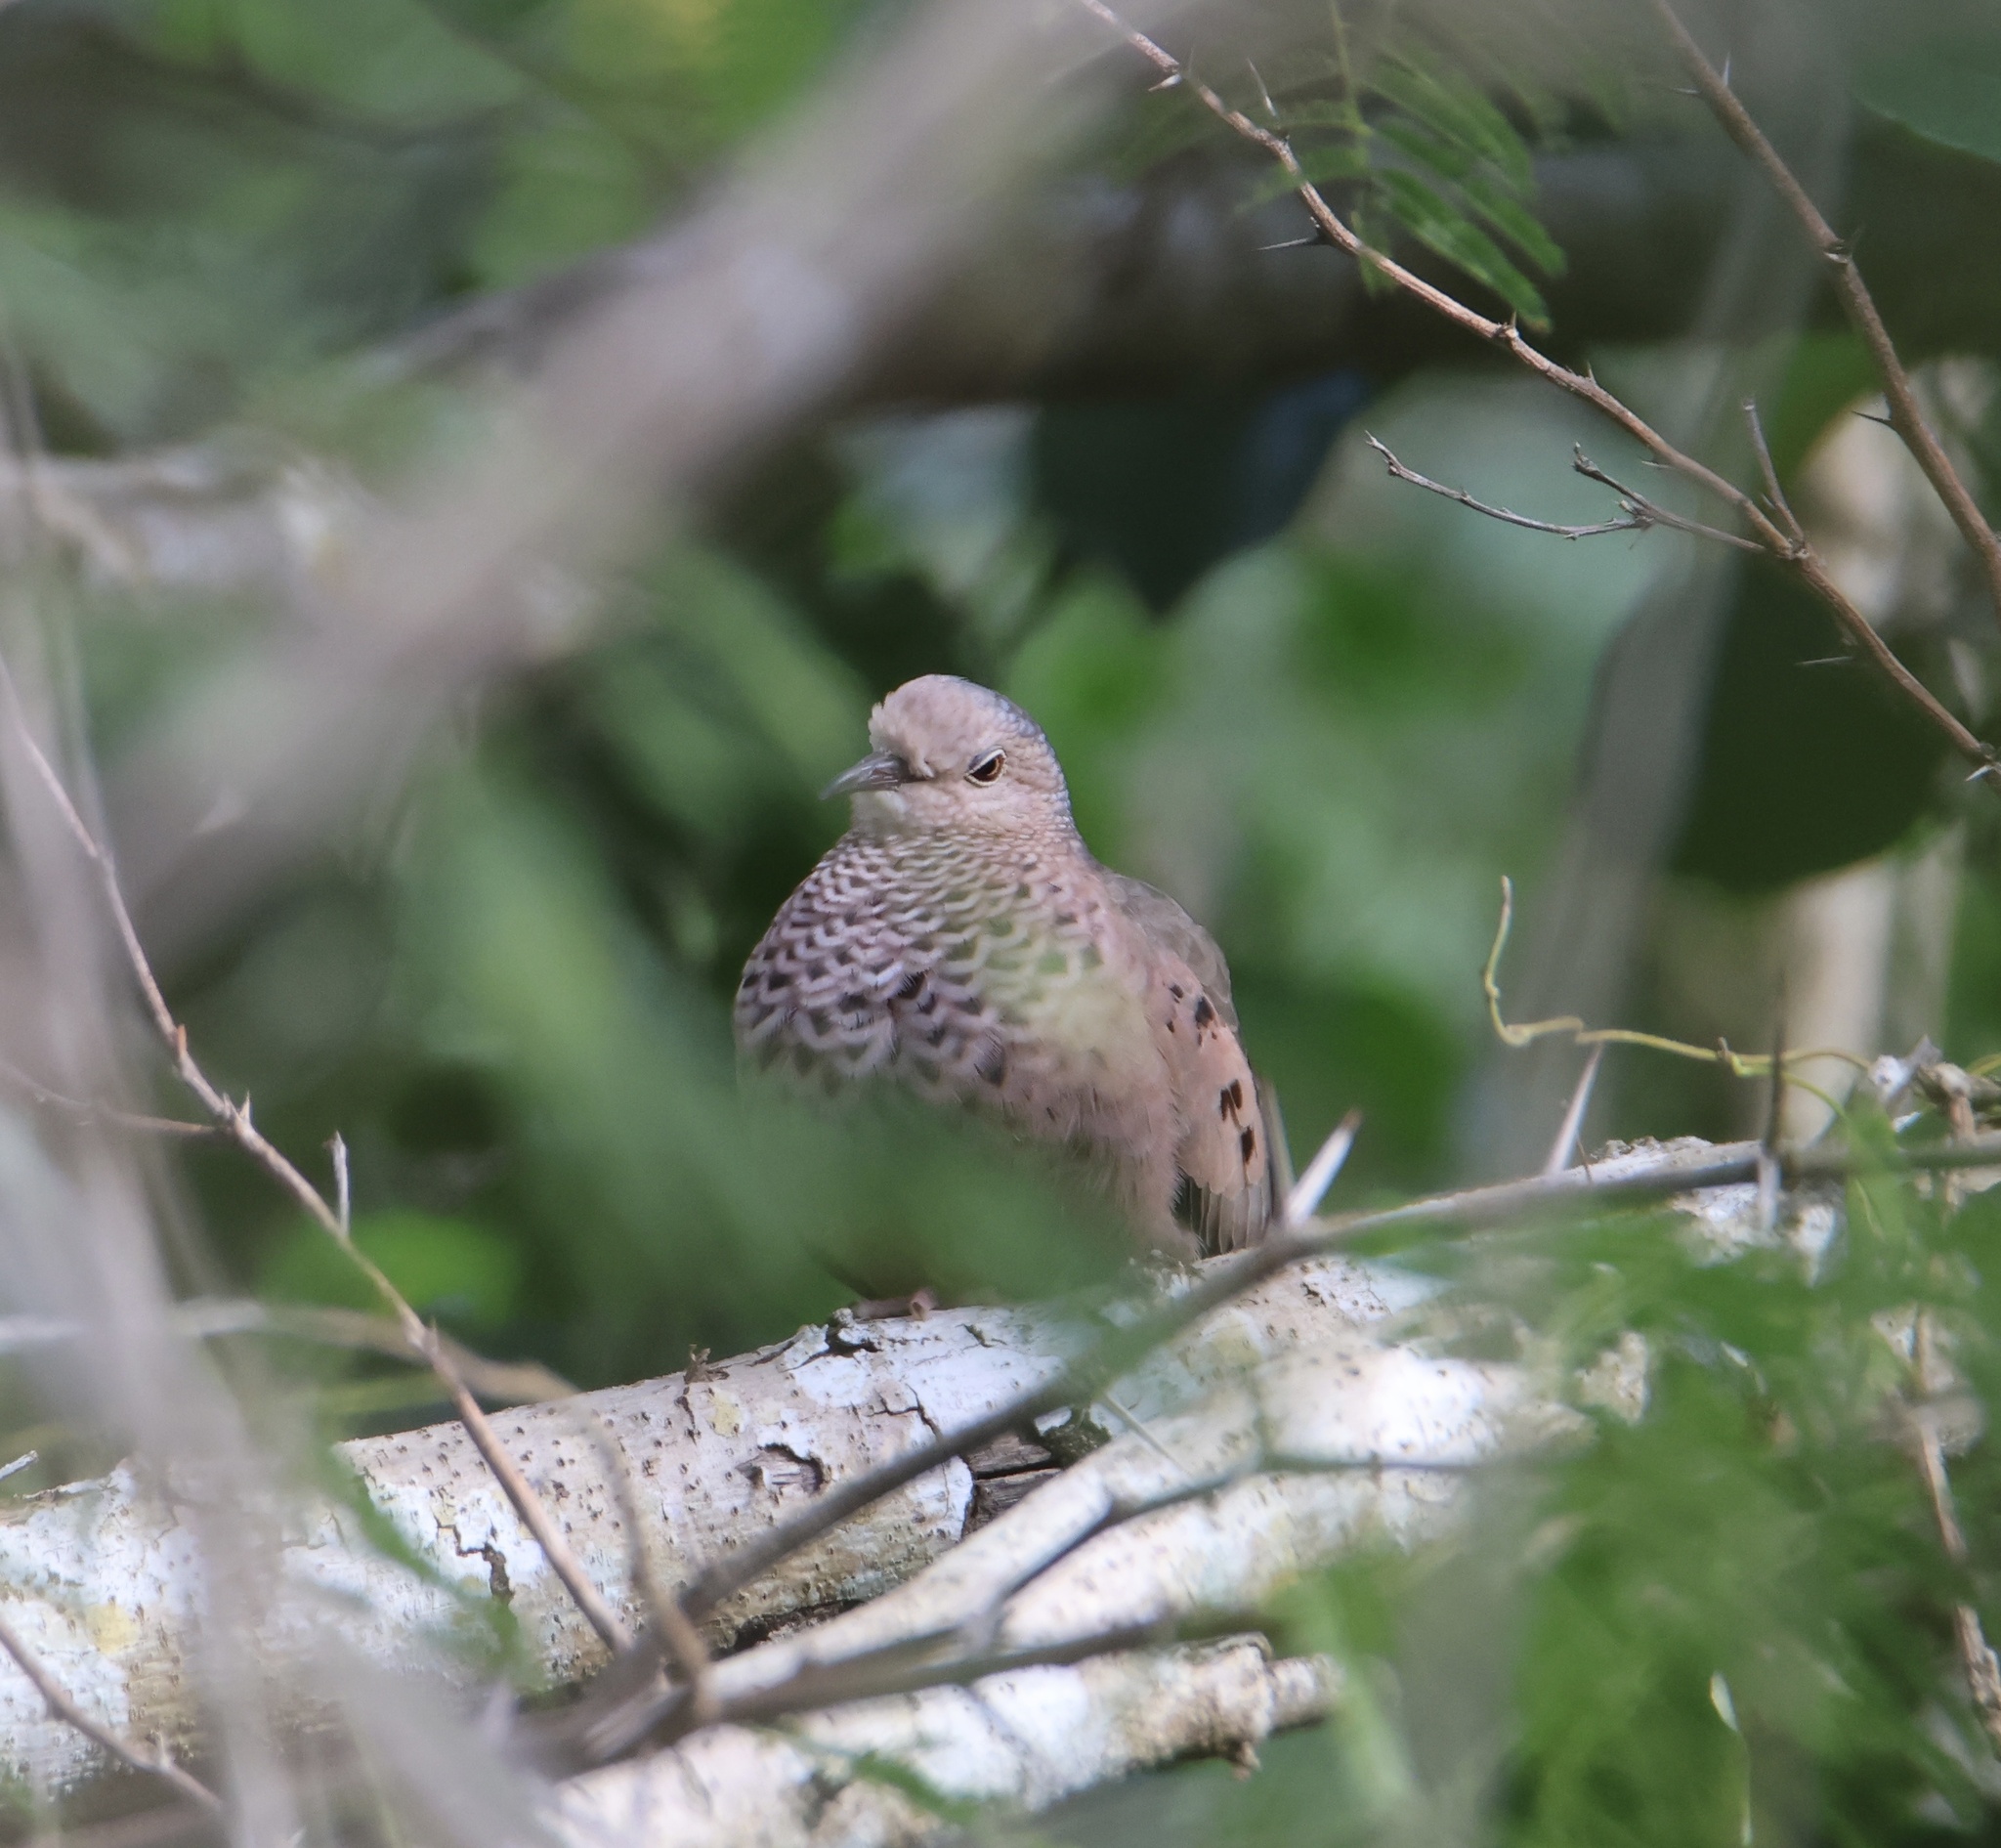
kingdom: Animalia
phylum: Chordata
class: Aves
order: Columbiformes
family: Columbidae
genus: Columbina
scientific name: Columbina passerina
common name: Common ground-dove
